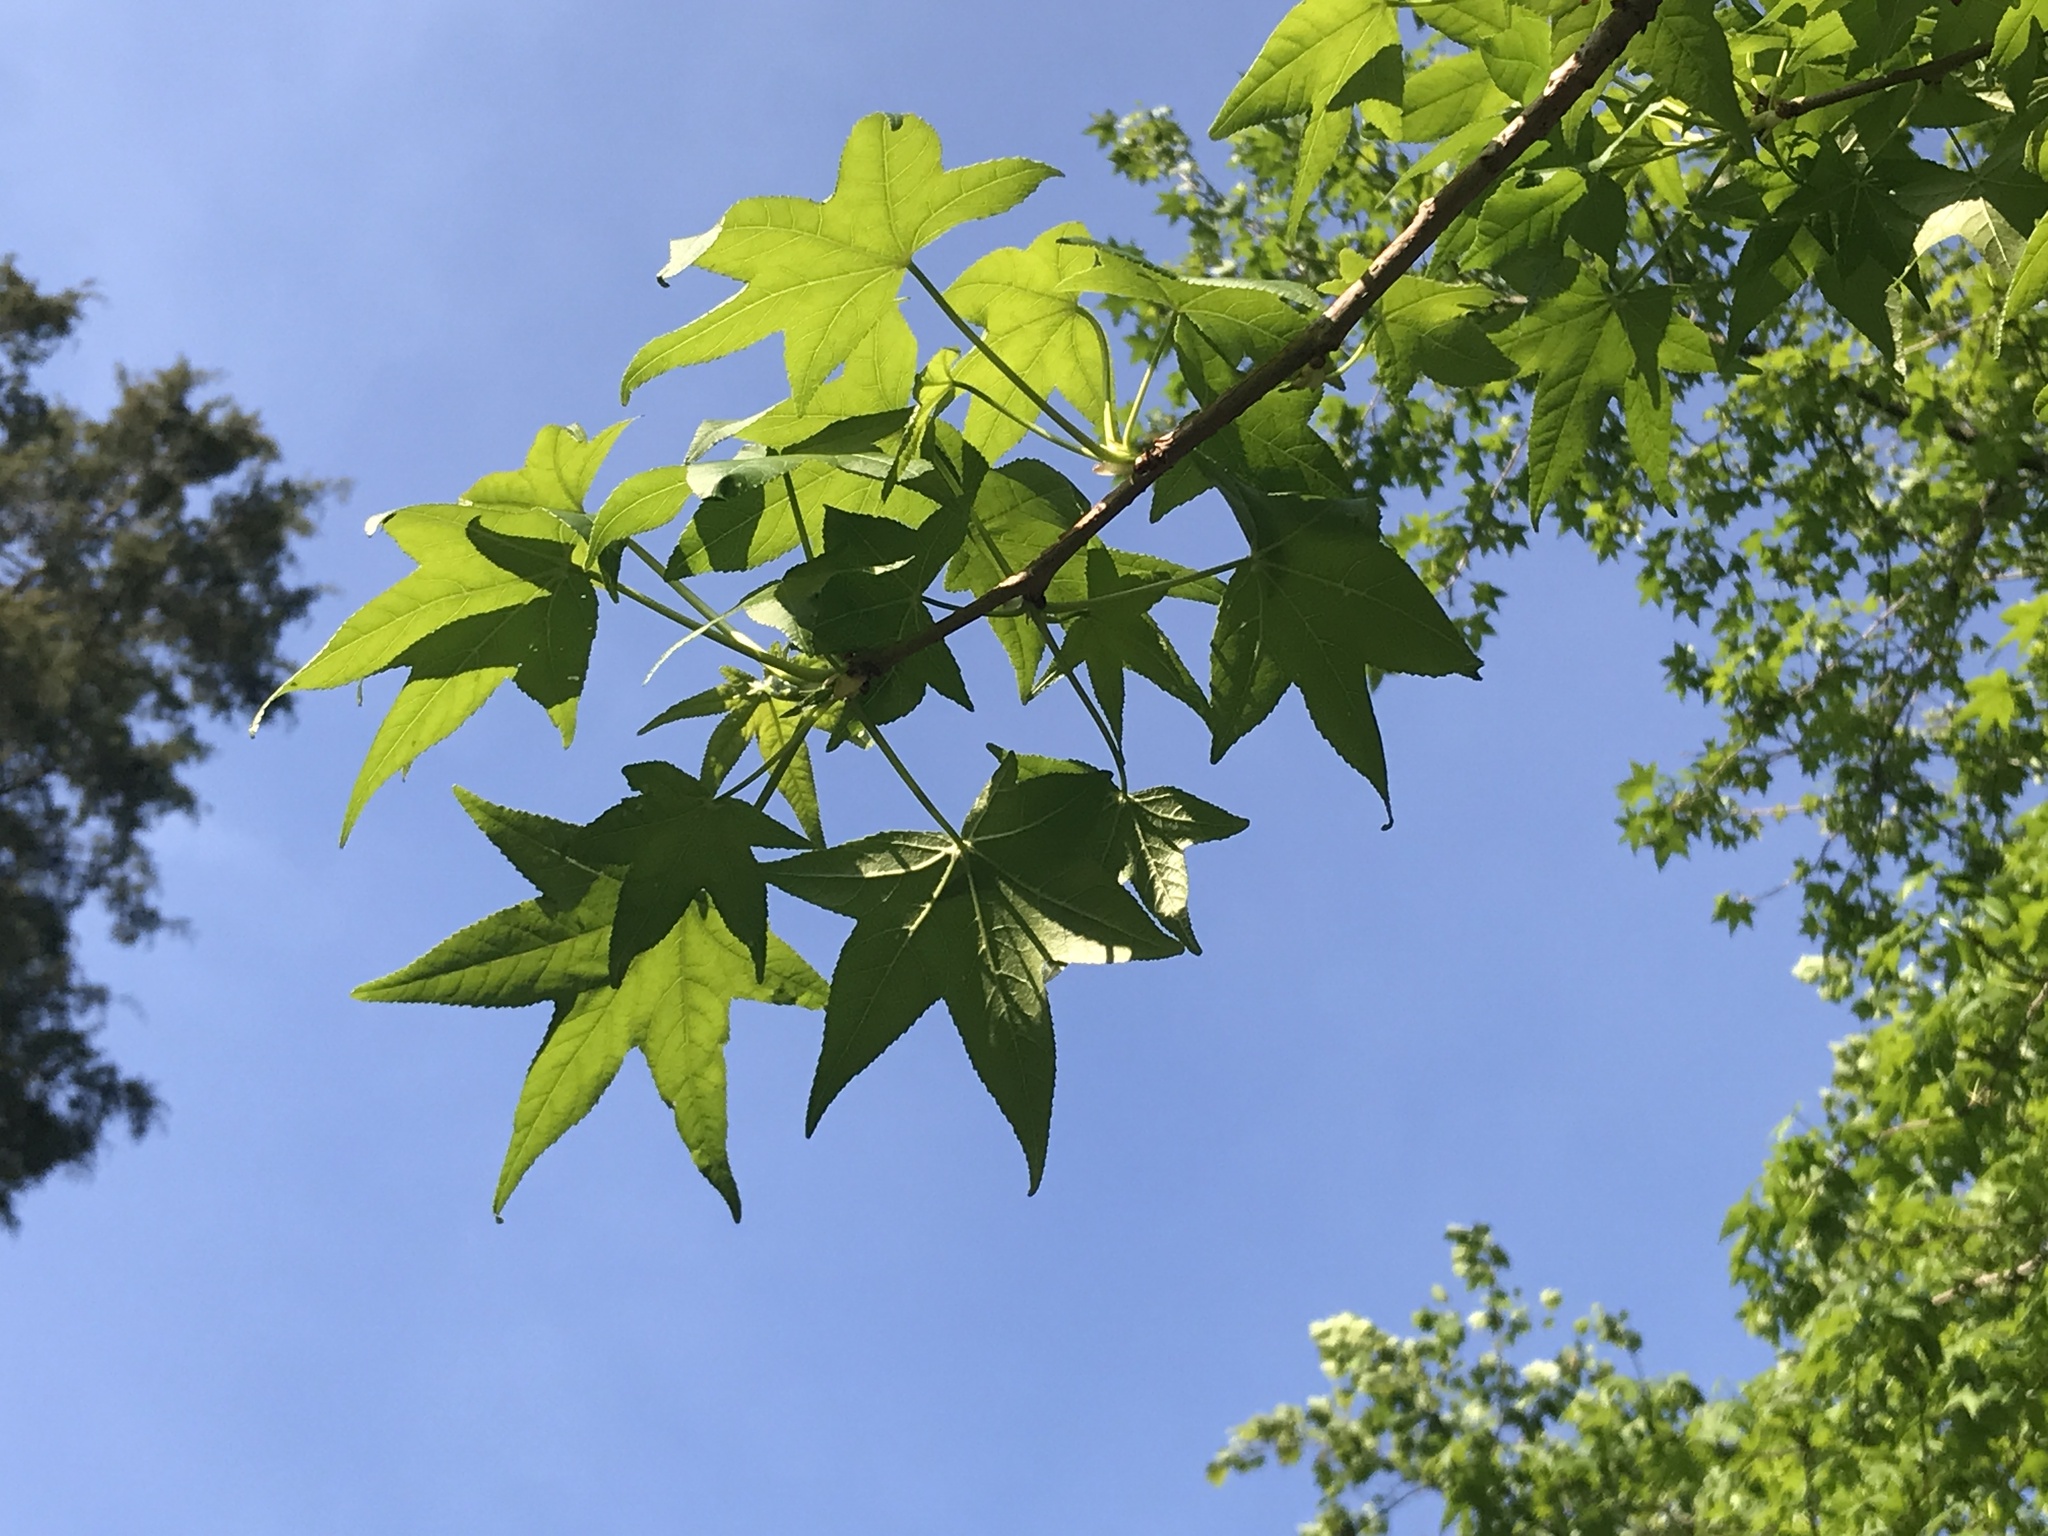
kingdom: Plantae
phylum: Tracheophyta
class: Magnoliopsida
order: Saxifragales
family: Altingiaceae
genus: Liquidambar
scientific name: Liquidambar styraciflua
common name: Sweet gum
